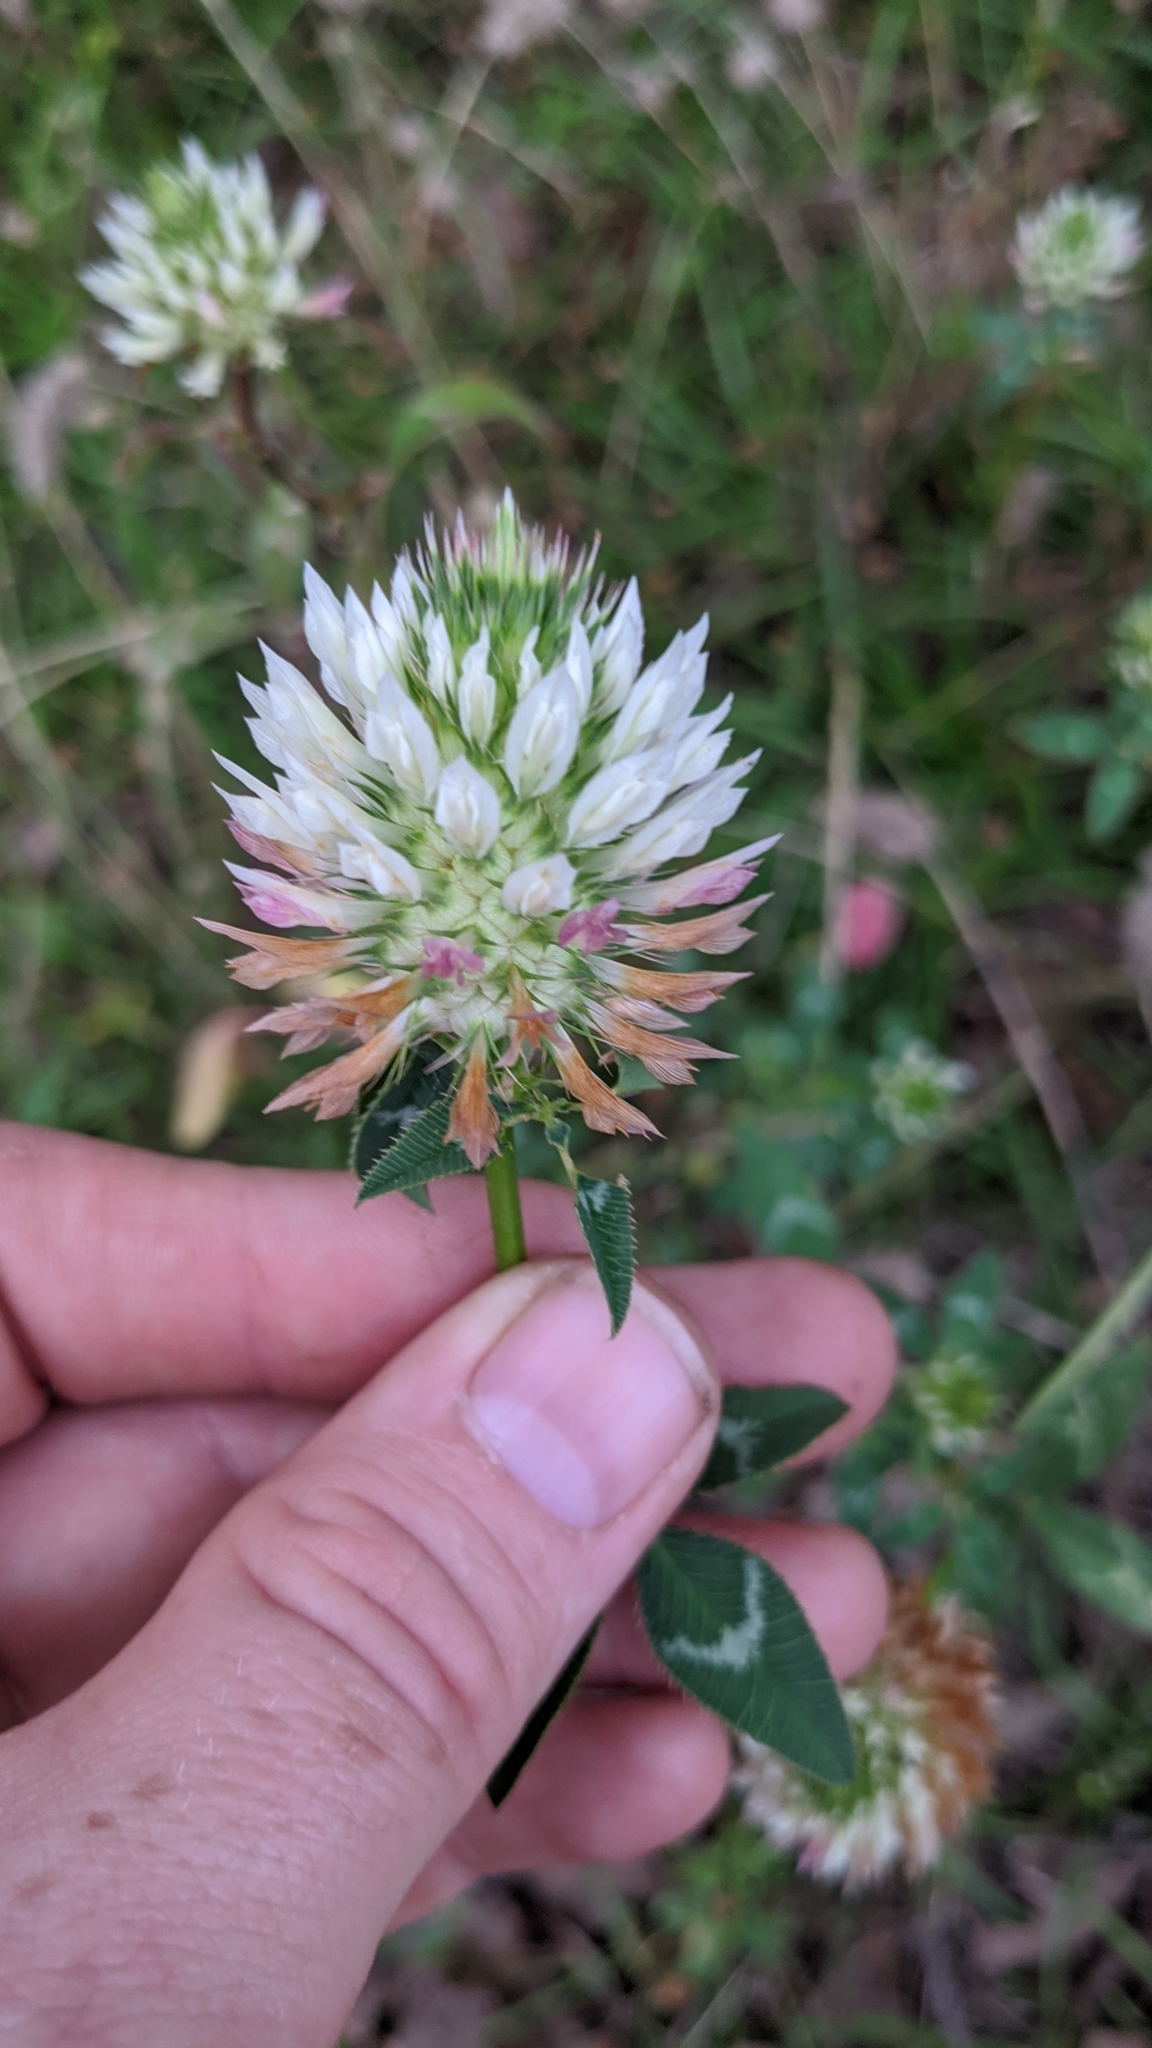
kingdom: Plantae
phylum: Tracheophyta
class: Magnoliopsida
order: Fabales
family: Fabaceae
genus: Trifolium
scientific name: Trifolium vesiculosum
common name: Arrowleaf clover
